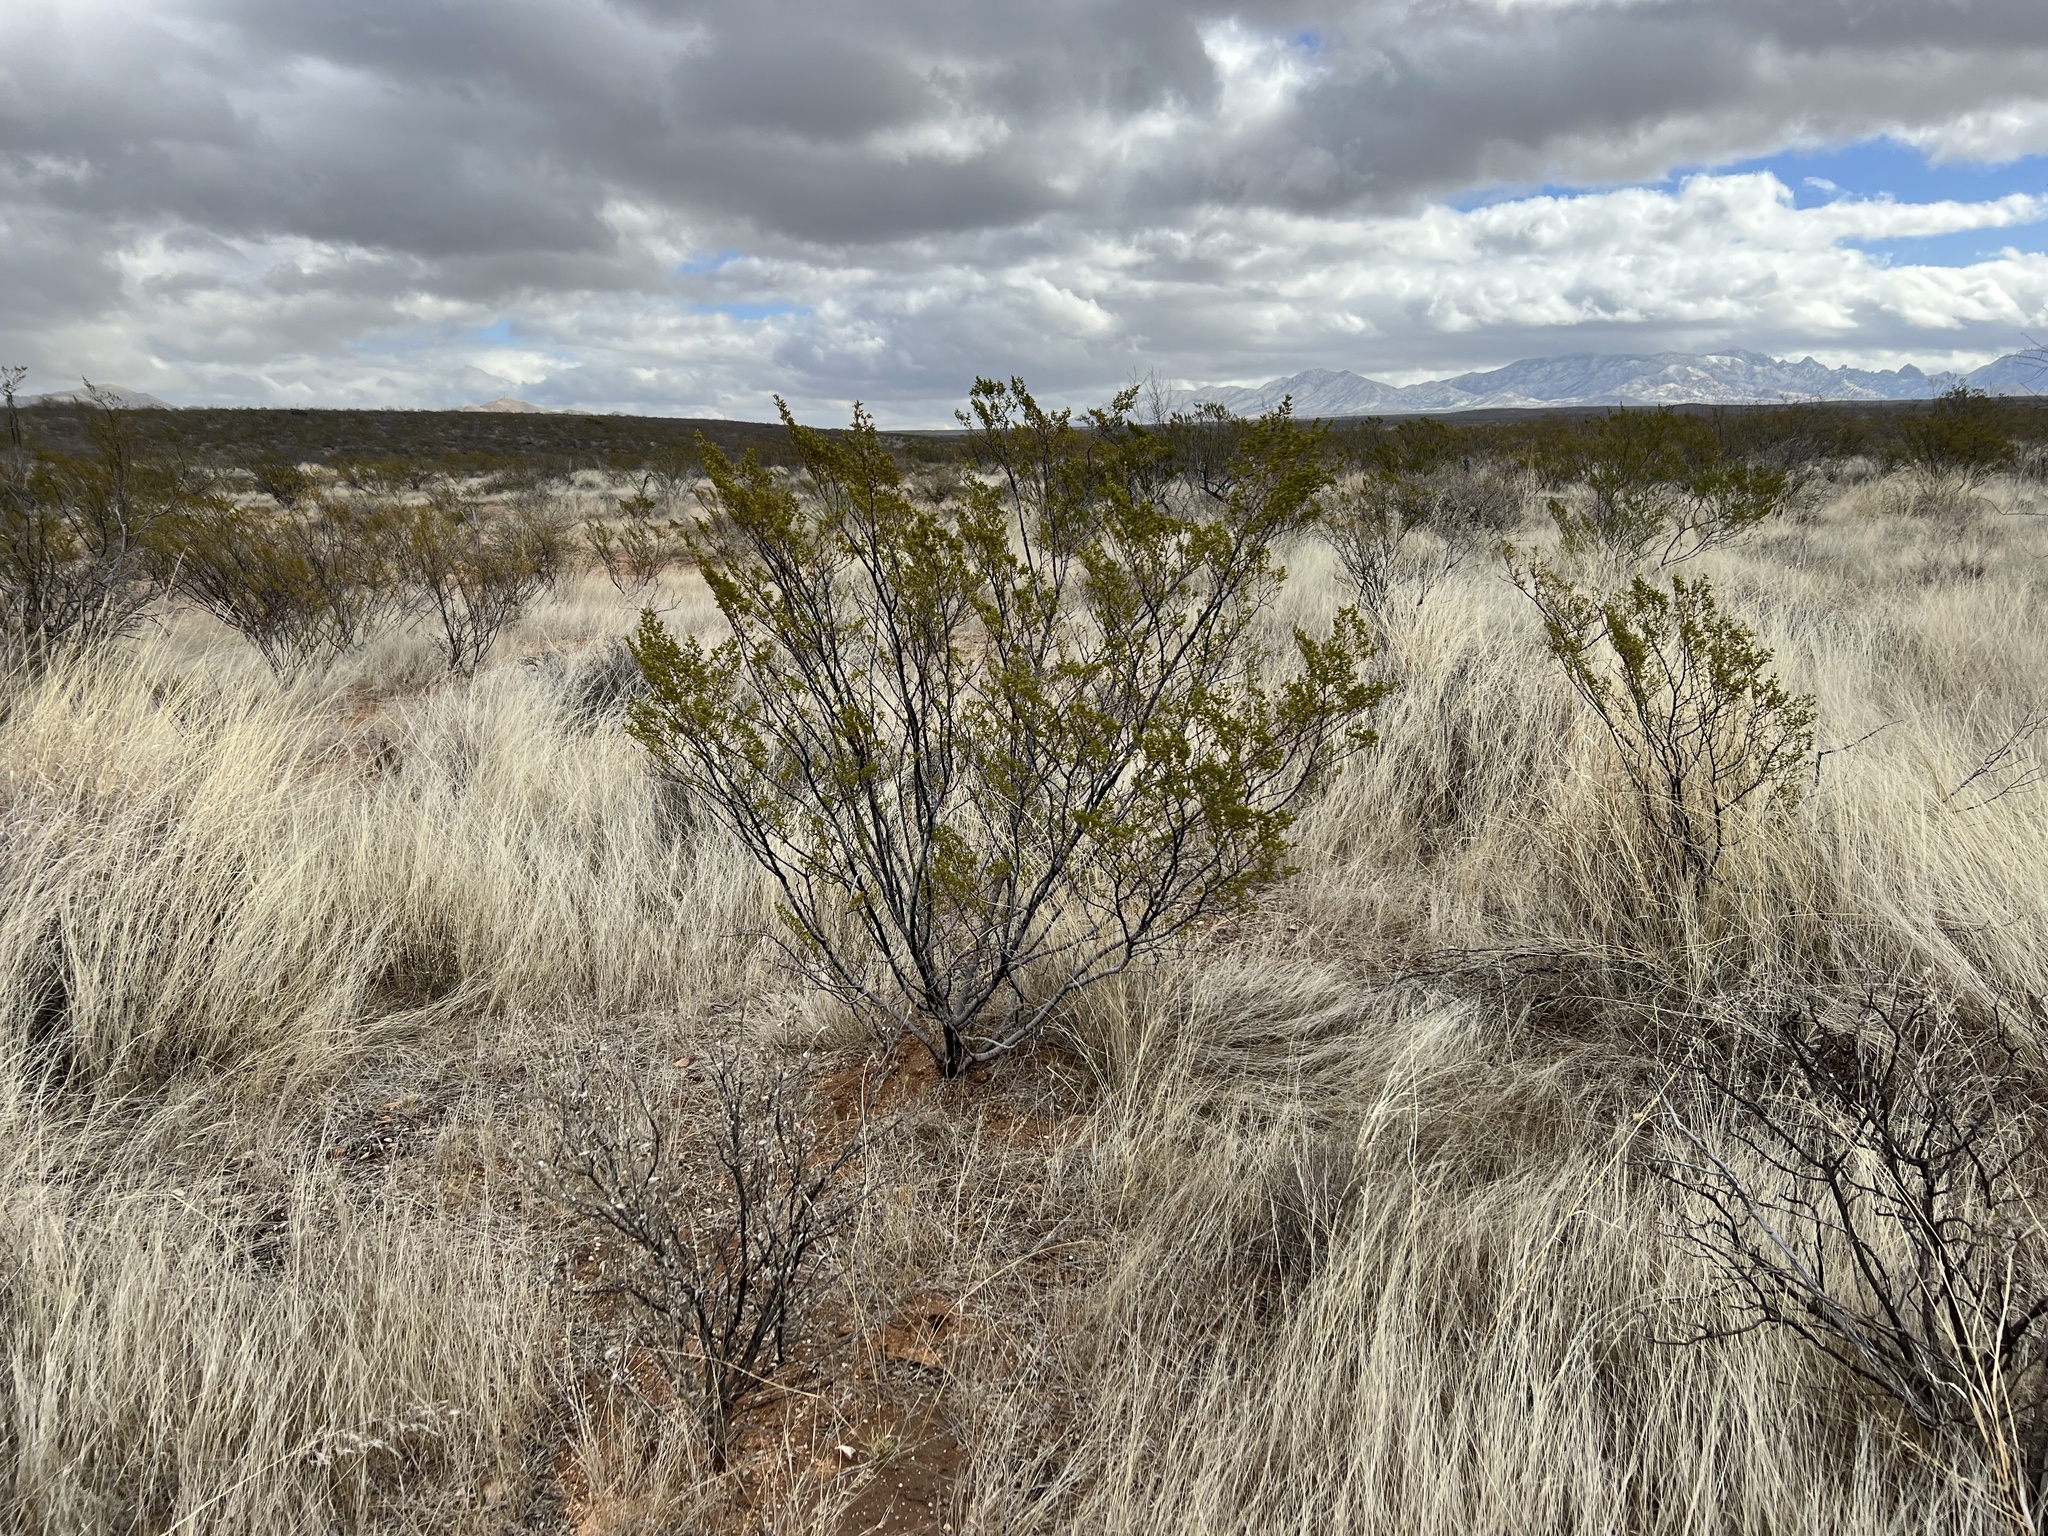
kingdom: Plantae
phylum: Tracheophyta
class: Magnoliopsida
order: Zygophyllales
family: Zygophyllaceae
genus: Larrea
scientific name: Larrea tridentata
